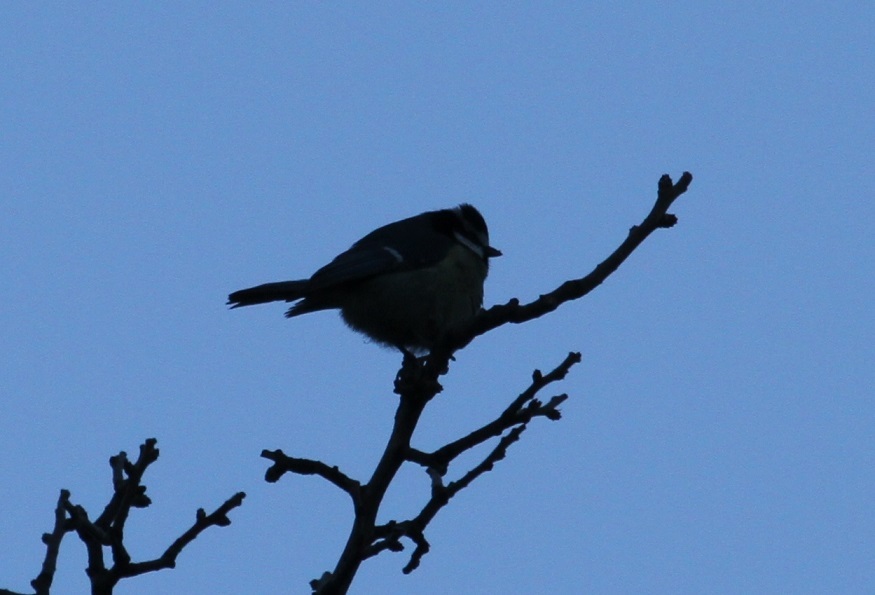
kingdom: Animalia
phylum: Chordata
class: Aves
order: Passeriformes
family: Paridae
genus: Cyanistes
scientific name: Cyanistes teneriffae
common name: African blue tit
